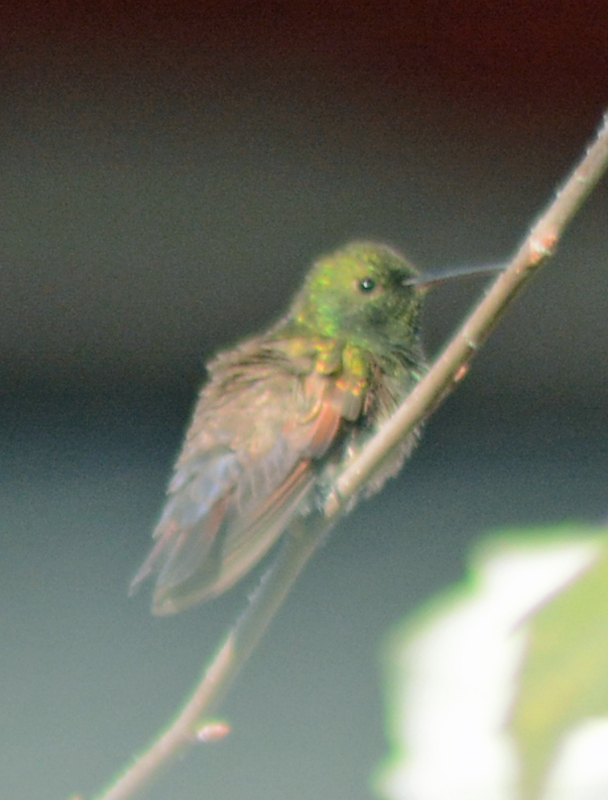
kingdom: Animalia
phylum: Chordata
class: Aves
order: Apodiformes
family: Trochilidae
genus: Saucerottia
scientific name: Saucerottia beryllina
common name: Berylline hummingbird
